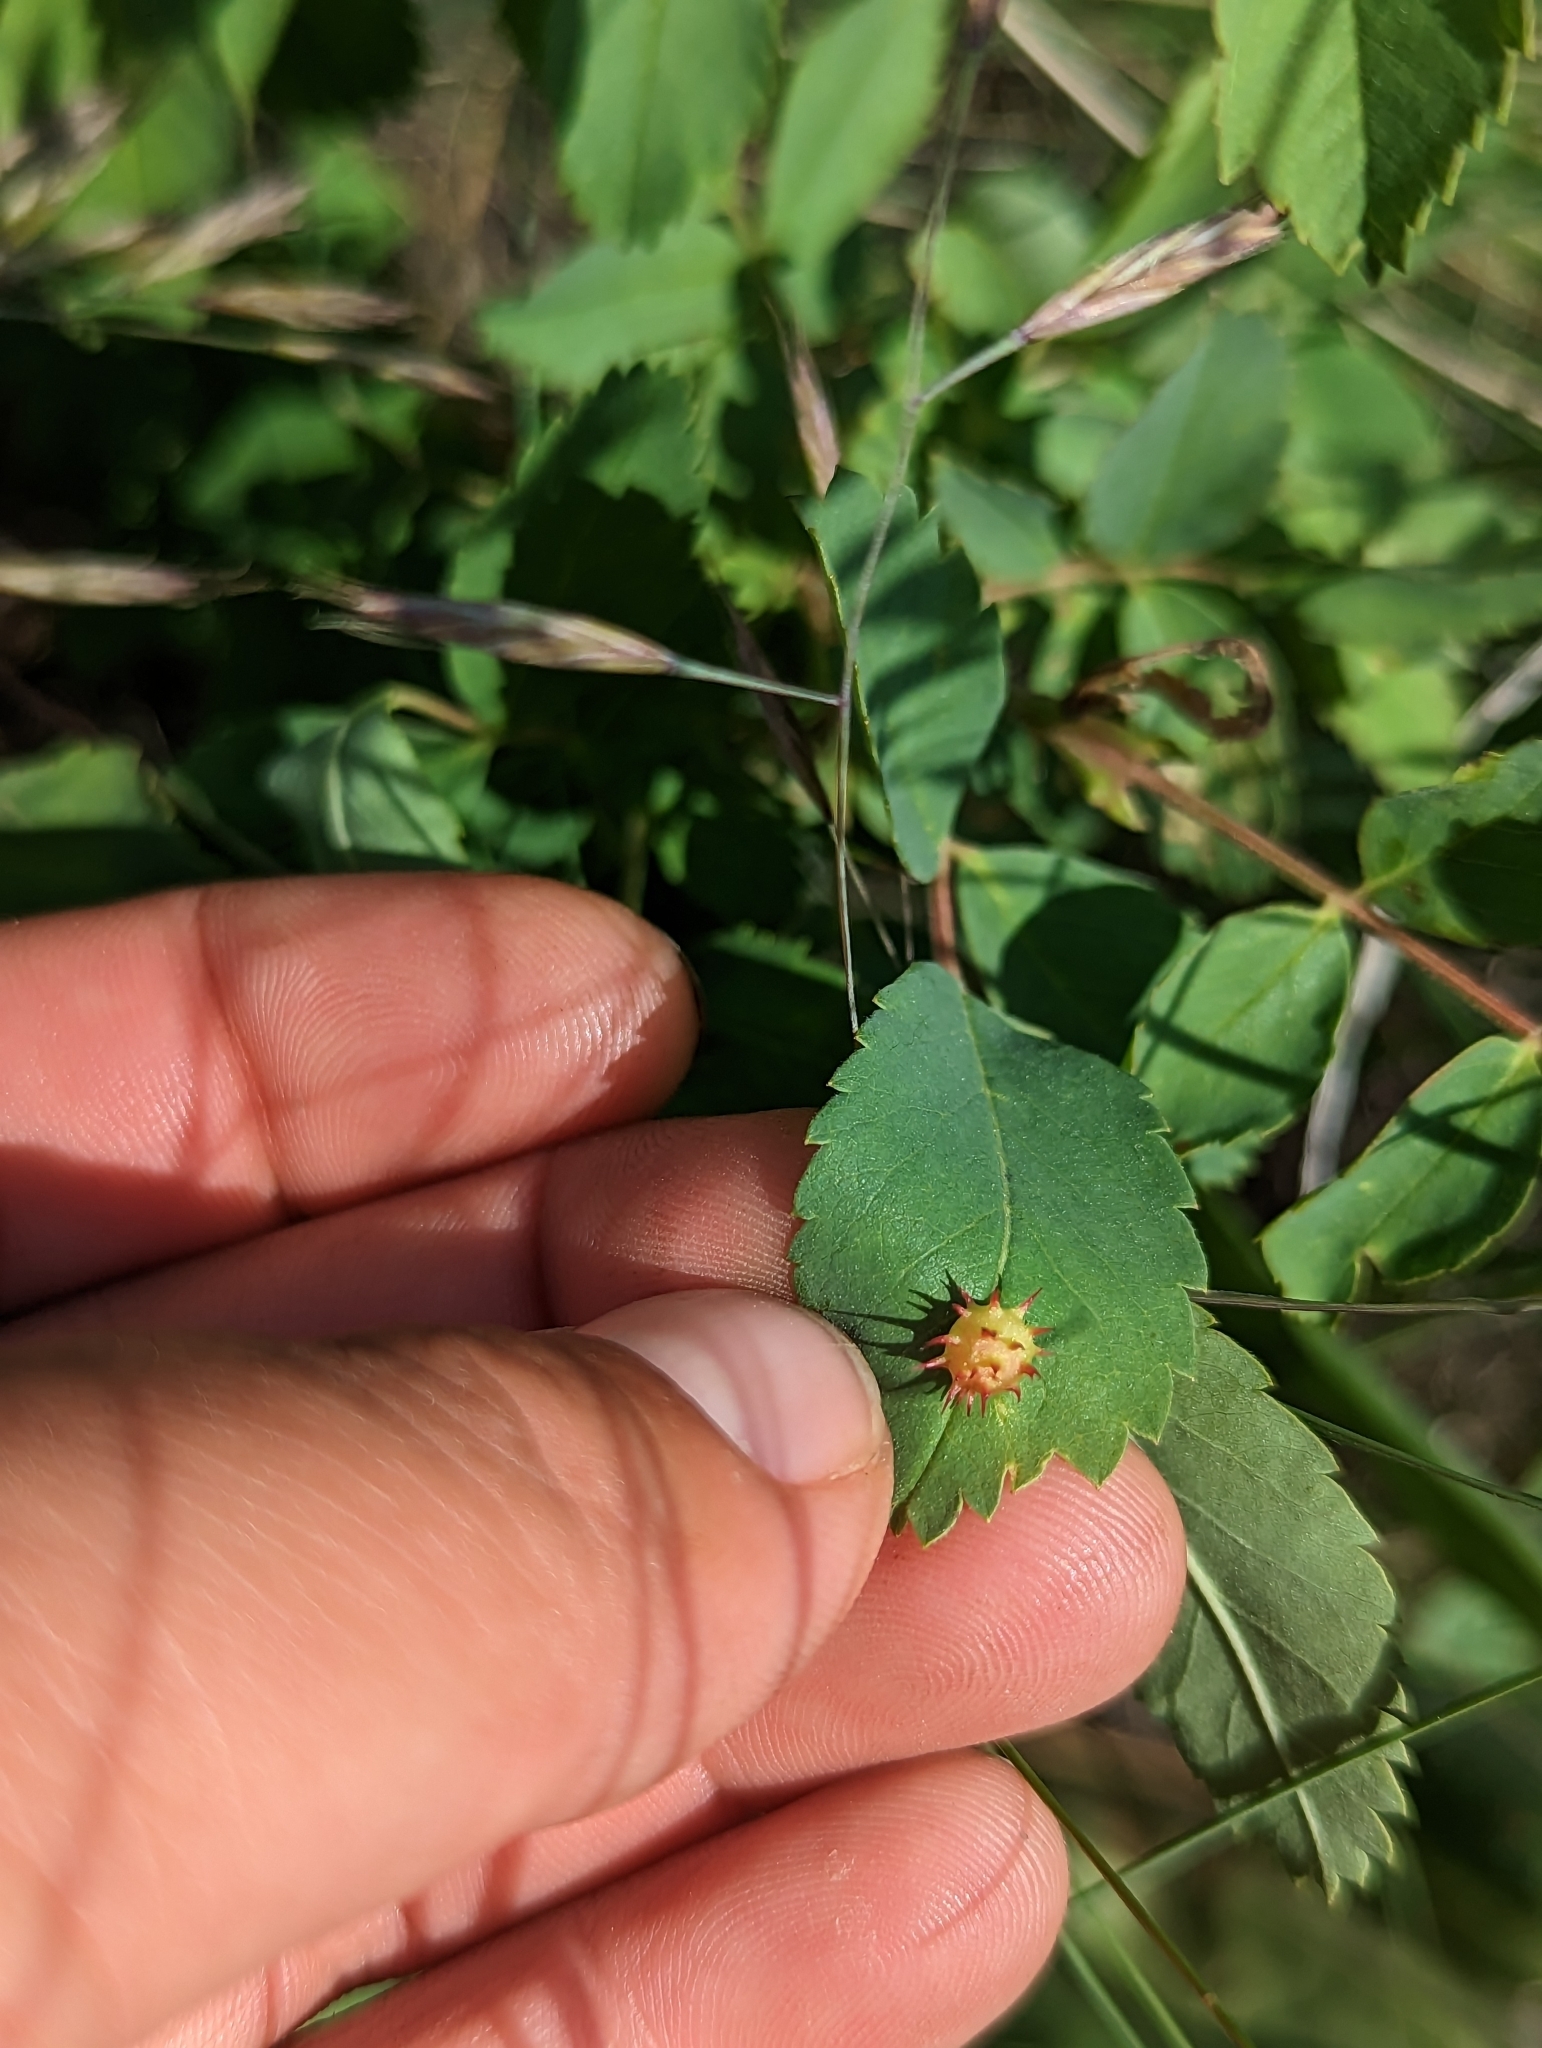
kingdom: Animalia
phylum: Arthropoda
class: Insecta
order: Hymenoptera
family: Cynipidae
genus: Diplolepis
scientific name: Diplolepis polita
